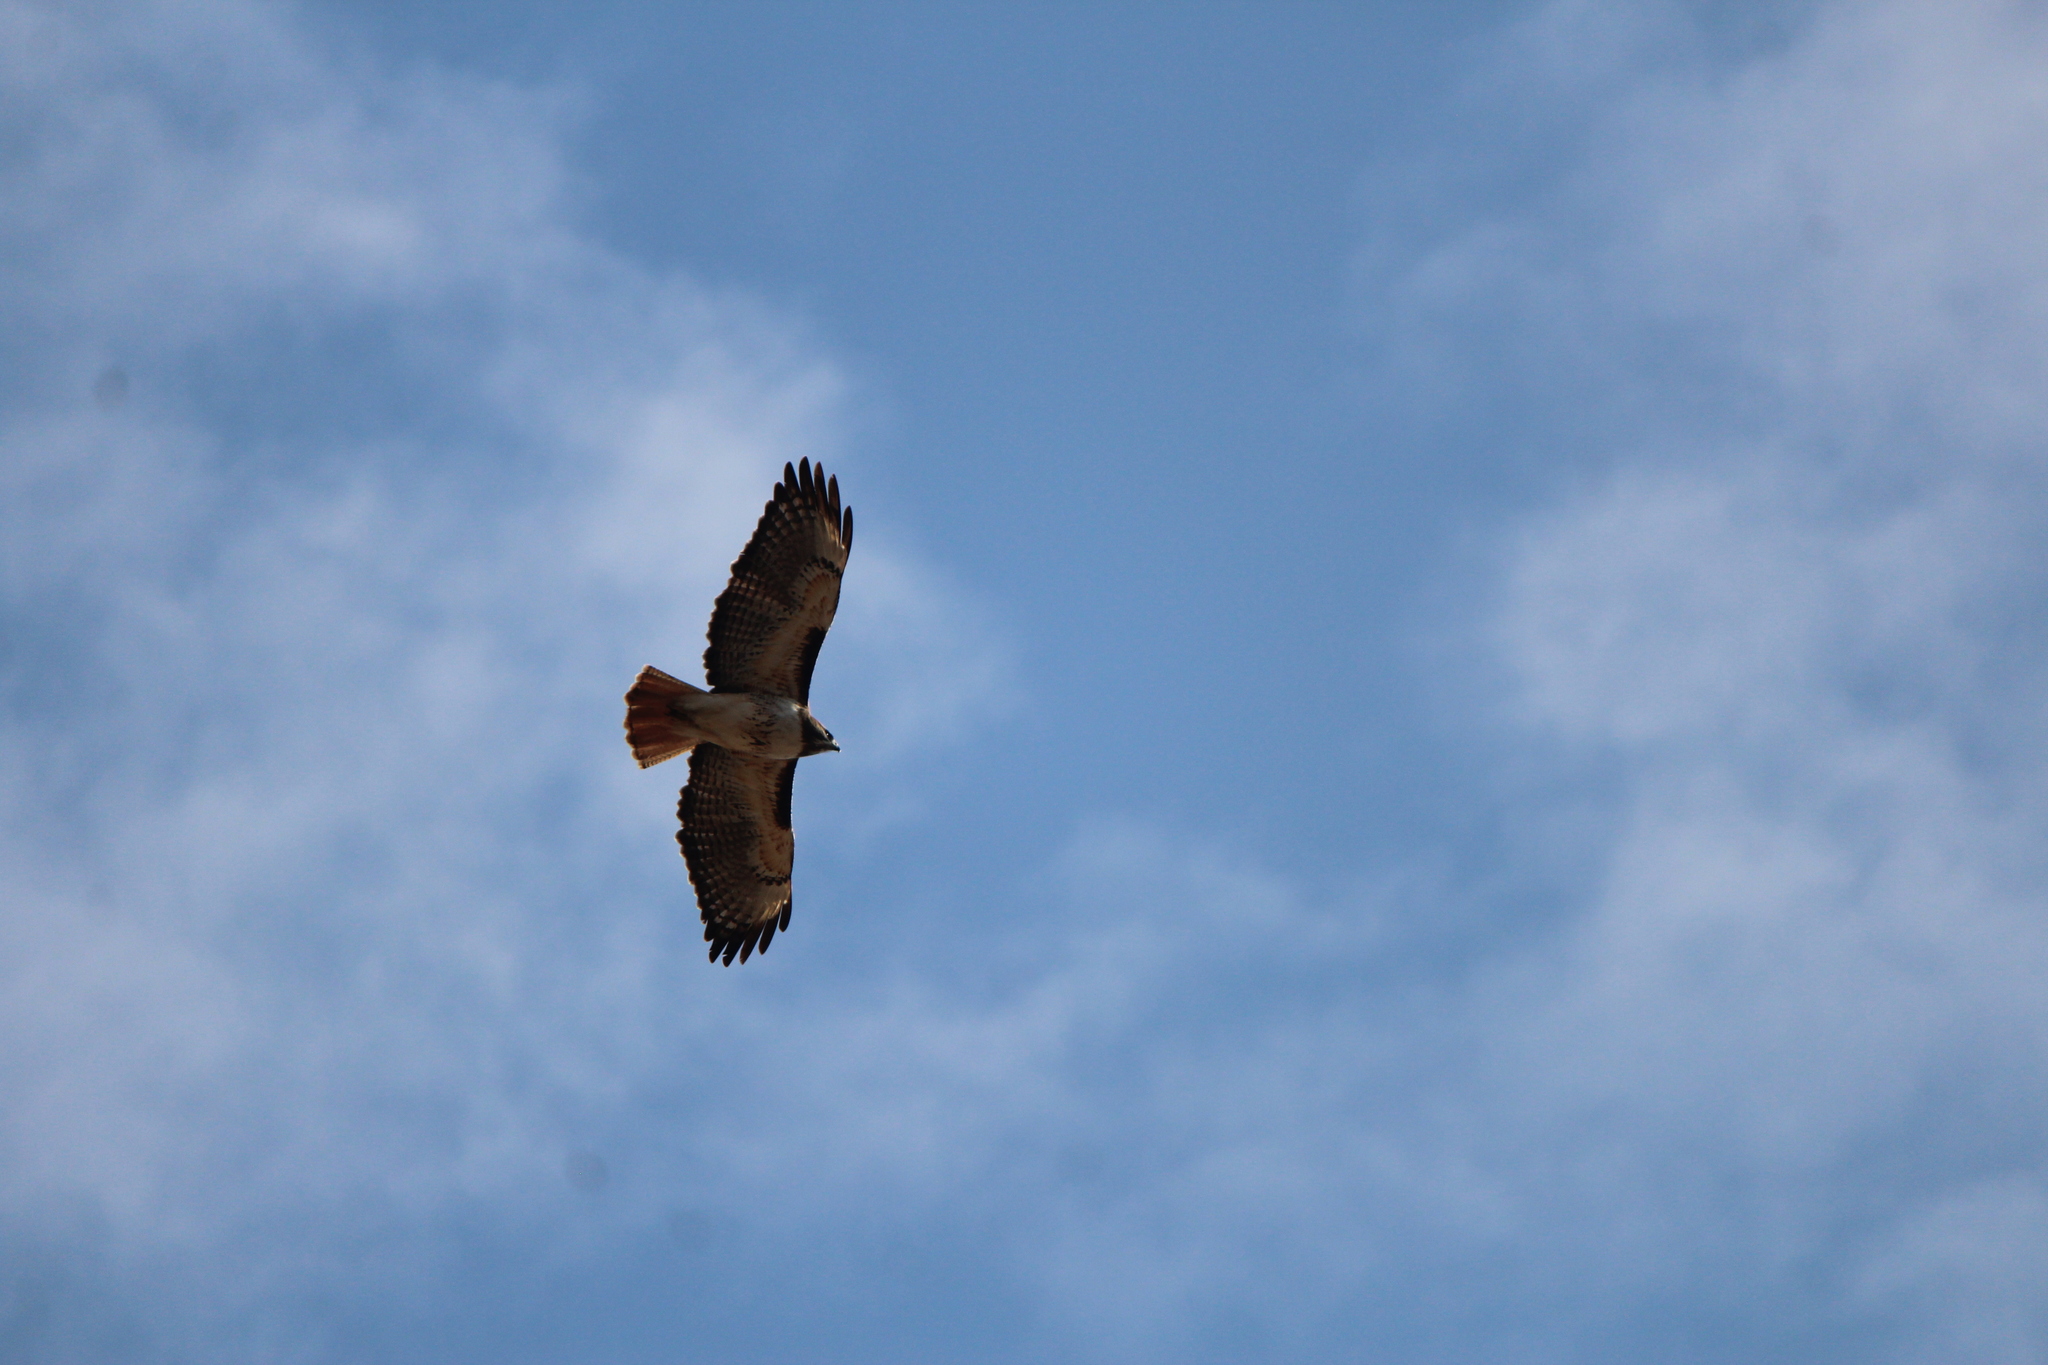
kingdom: Animalia
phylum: Chordata
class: Aves
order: Accipitriformes
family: Accipitridae
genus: Buteo
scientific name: Buteo jamaicensis
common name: Red-tailed hawk
